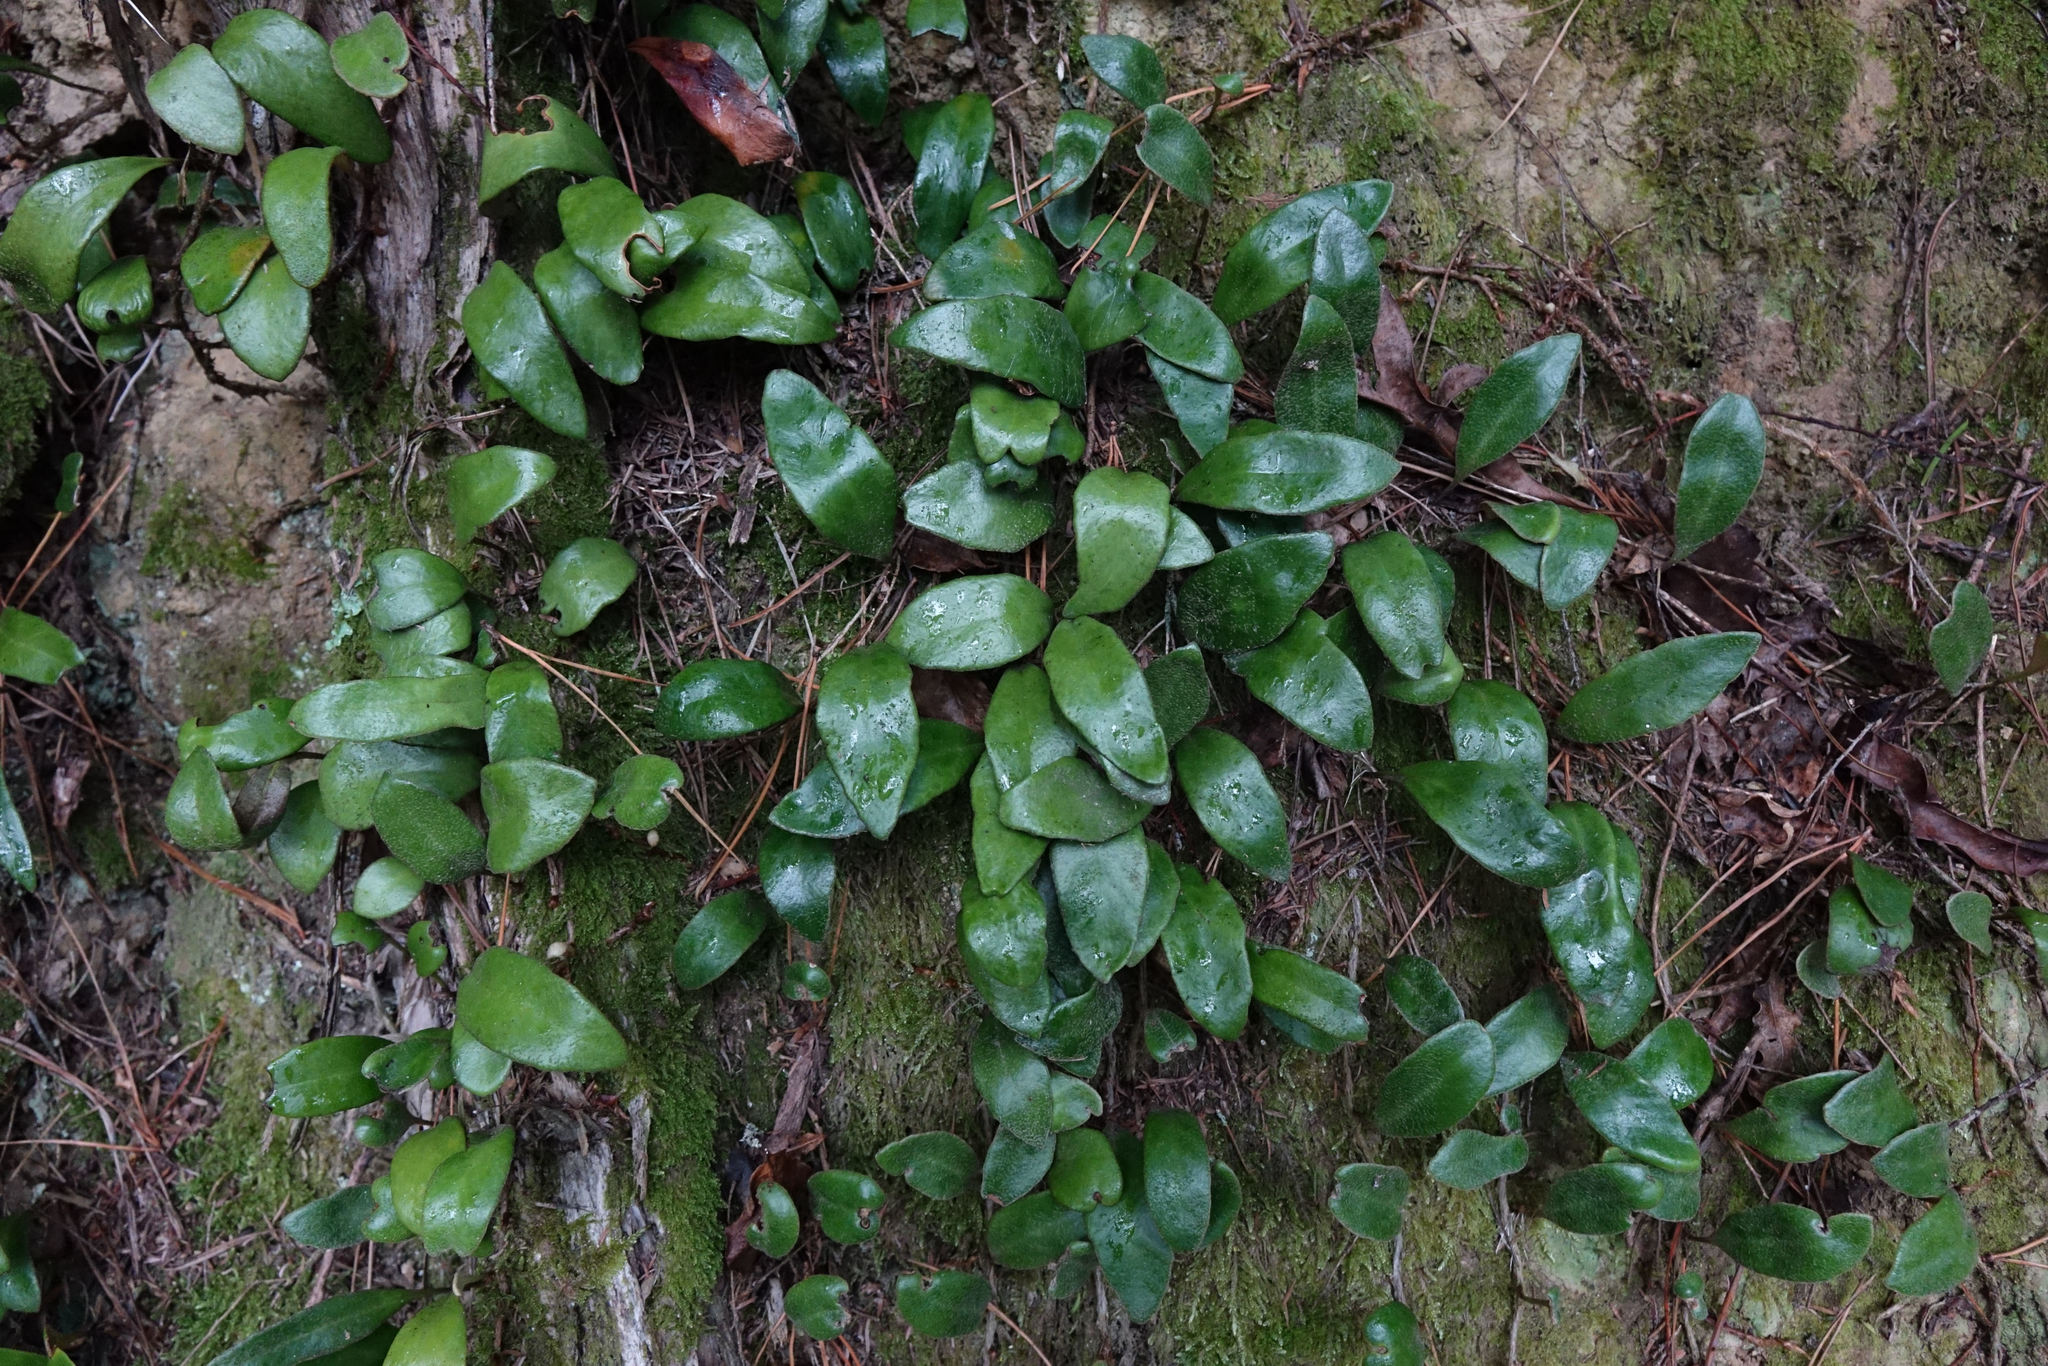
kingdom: Plantae
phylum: Tracheophyta
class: Polypodiopsida
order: Polypodiales
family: Polypodiaceae
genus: Pyrrosia
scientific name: Pyrrosia eleagnifolia
